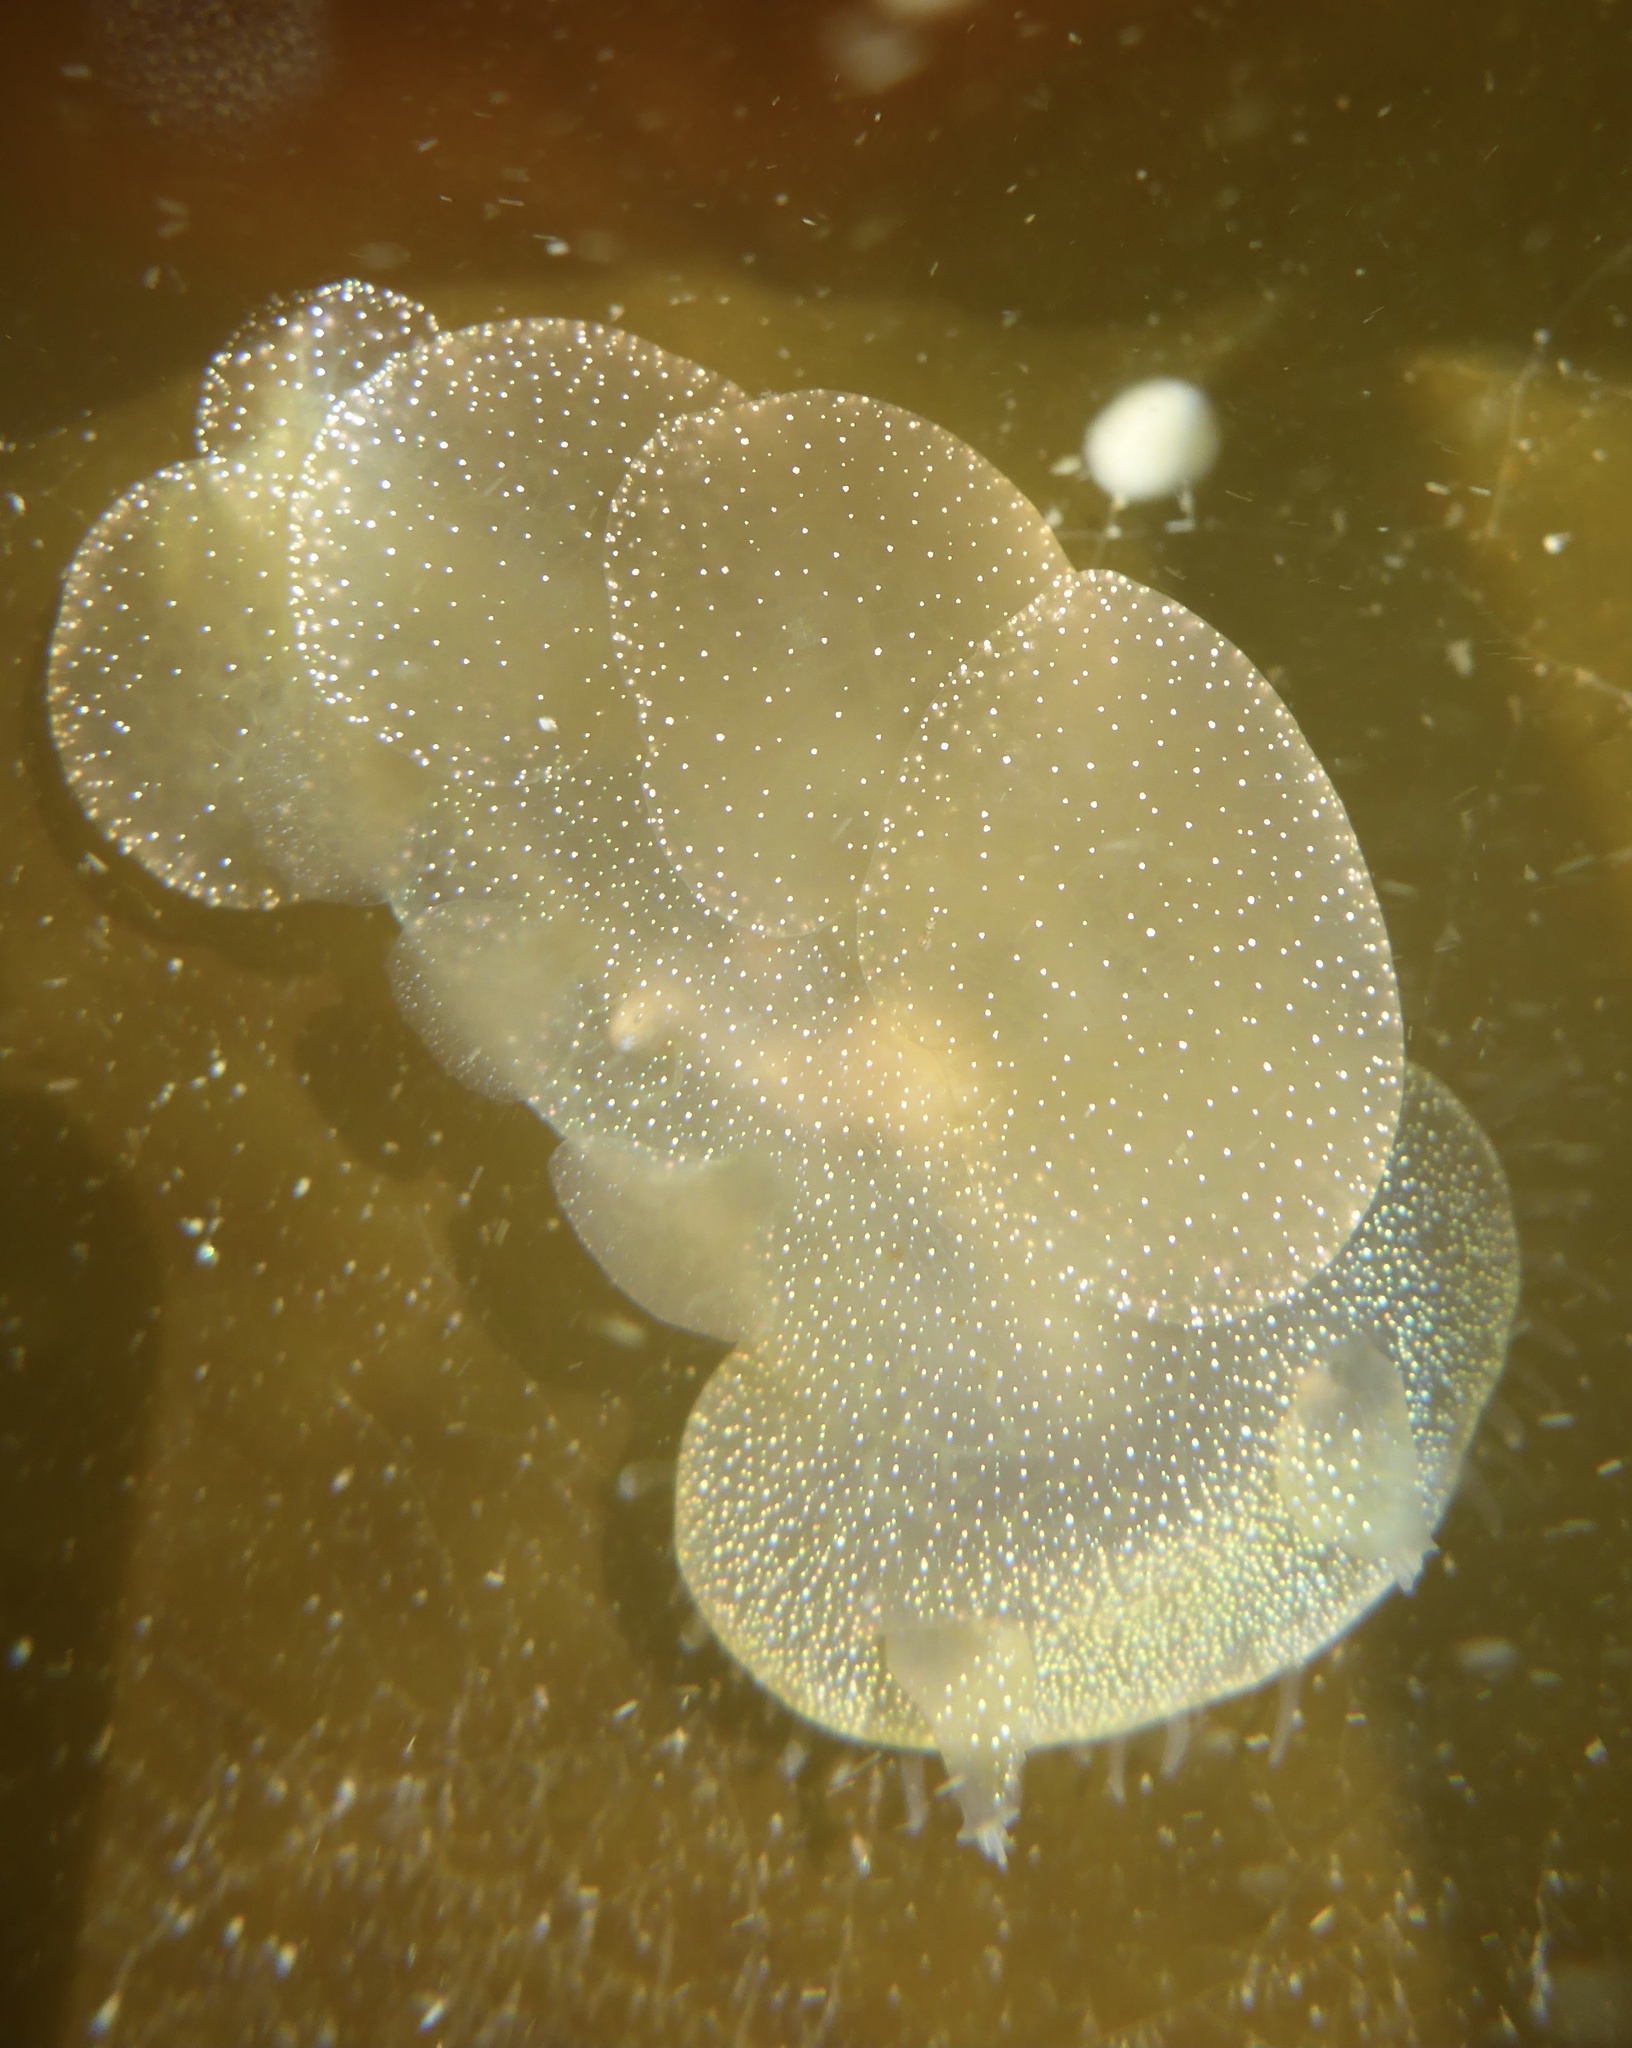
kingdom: Animalia
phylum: Mollusca
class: Gastropoda
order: Nudibranchia
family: Tethydidae
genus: Melibe
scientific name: Melibe leonina
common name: Lion nudibranch
